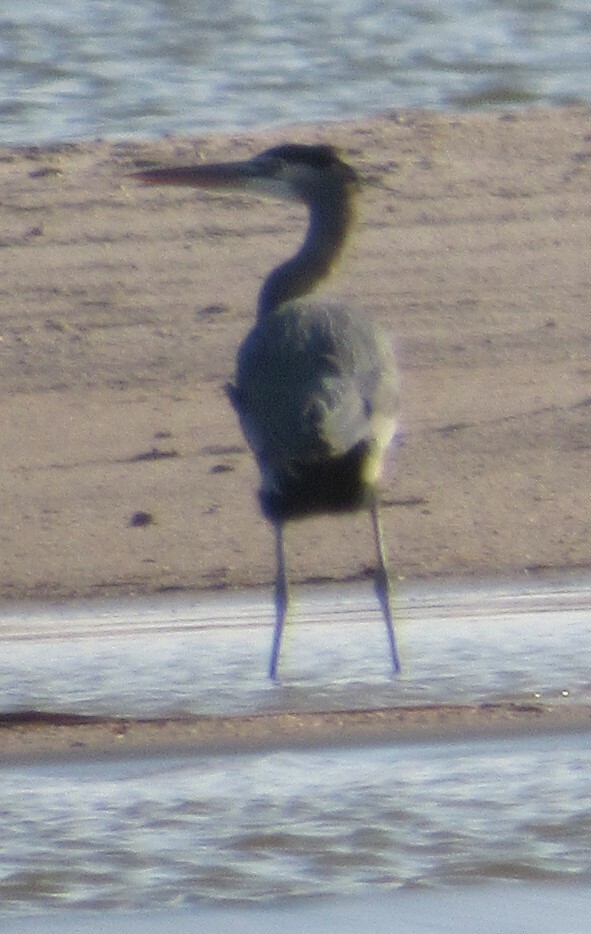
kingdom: Animalia
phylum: Chordata
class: Aves
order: Pelecaniformes
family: Ardeidae
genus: Ardea
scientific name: Ardea herodias
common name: Great blue heron
